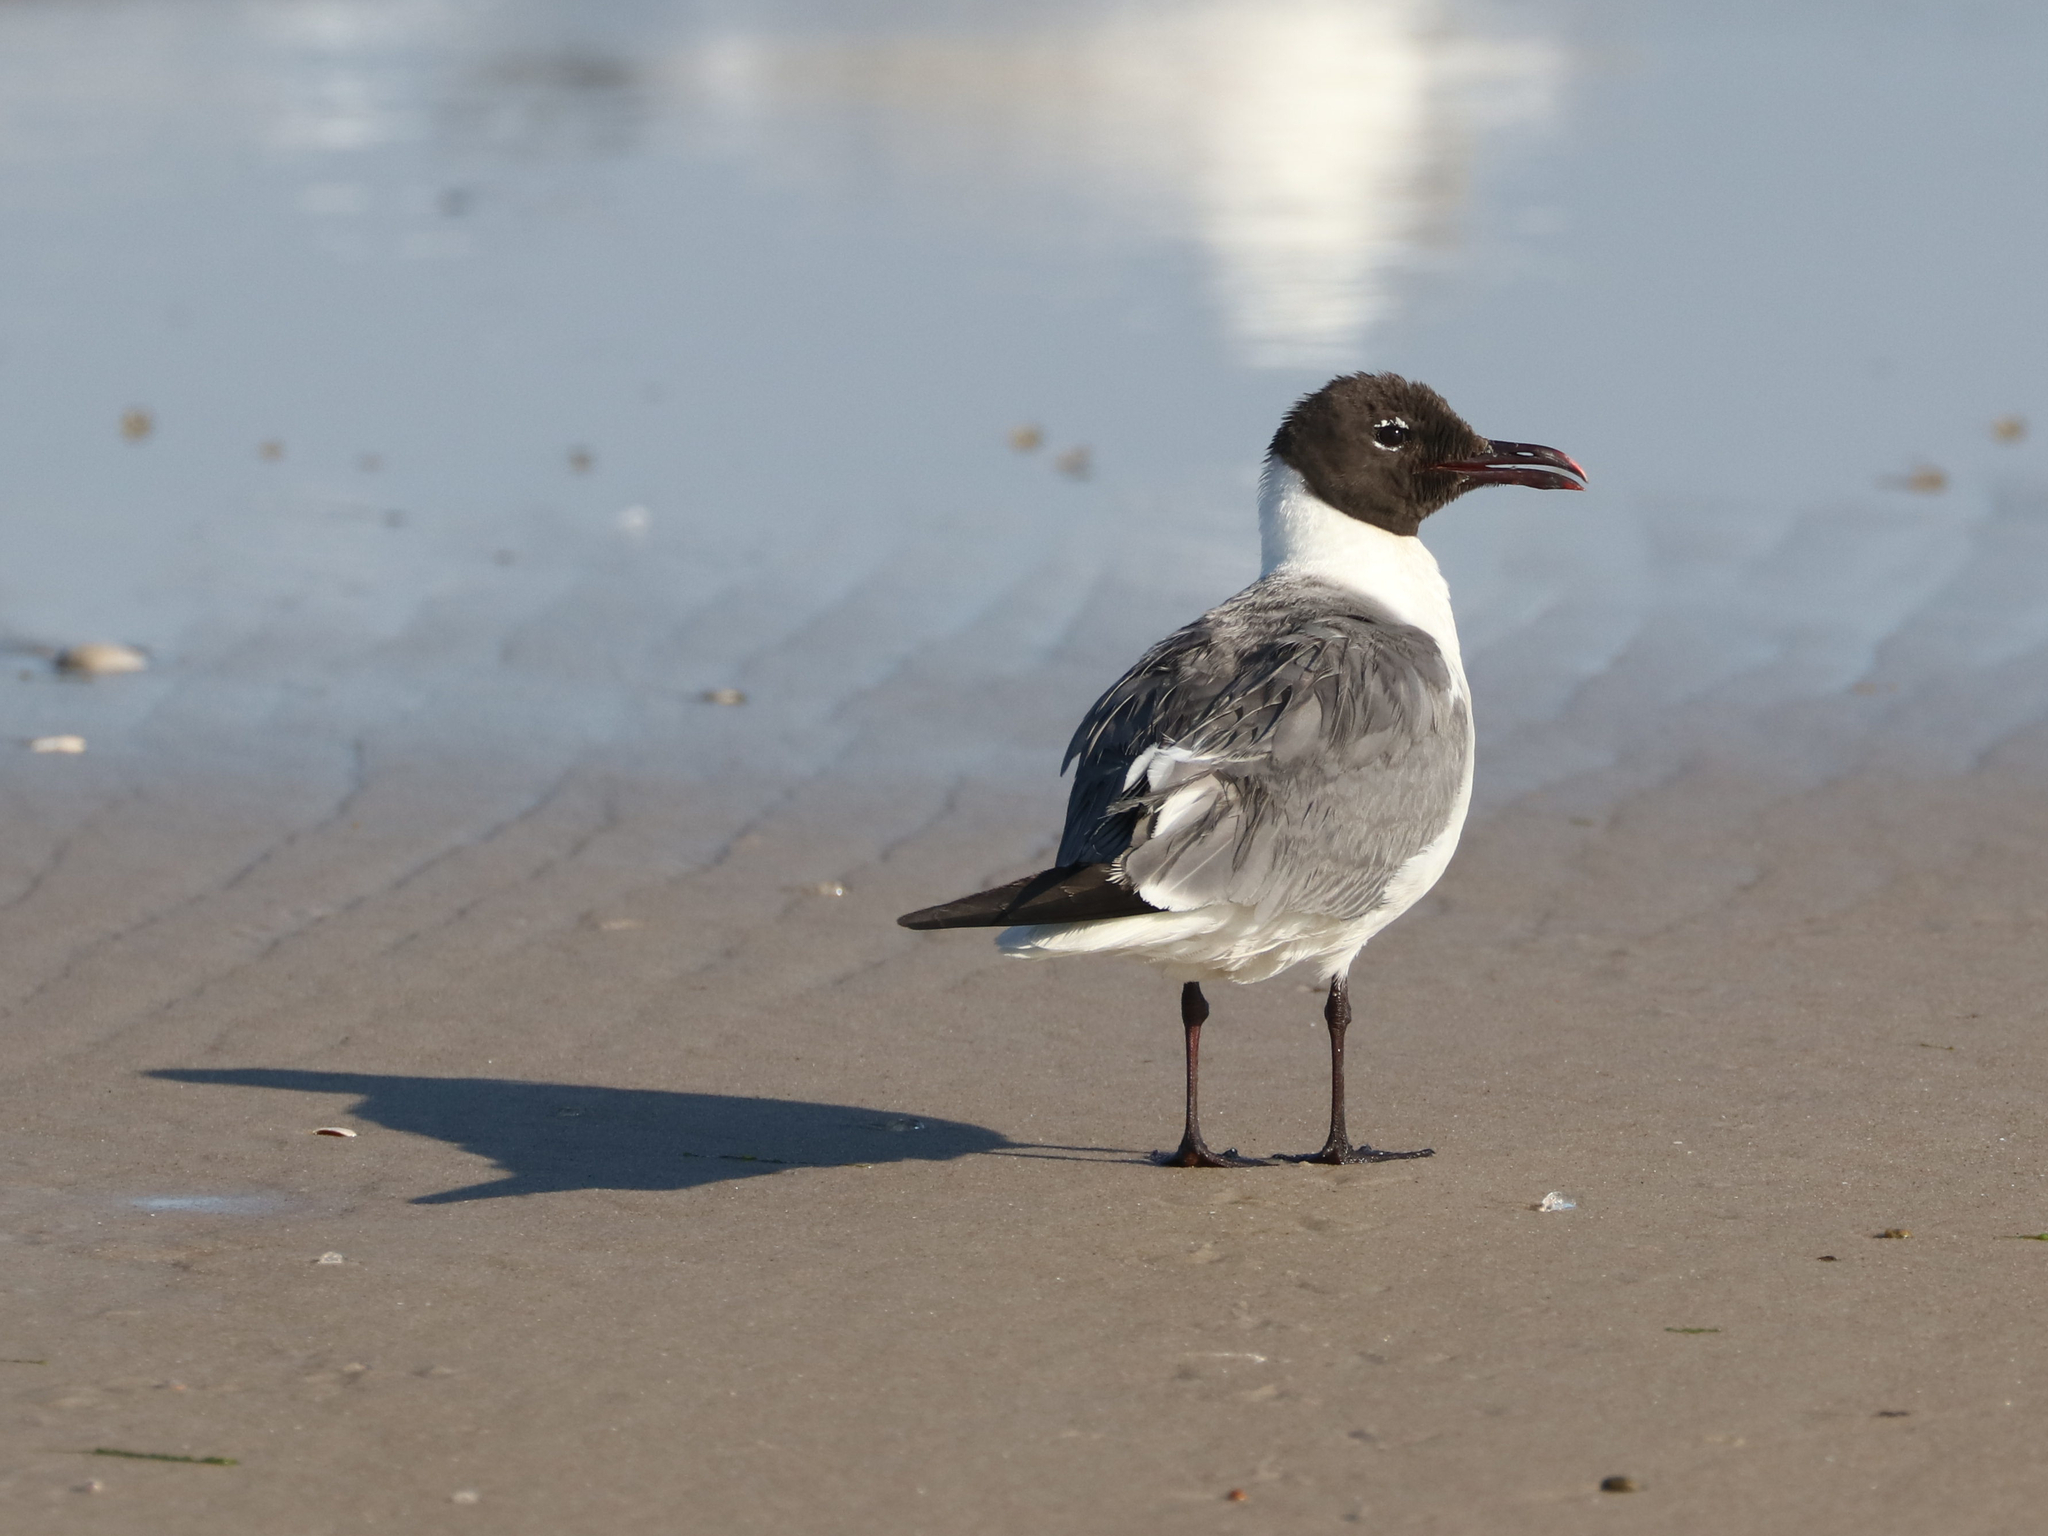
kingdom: Animalia
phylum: Chordata
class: Aves
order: Charadriiformes
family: Laridae
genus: Leucophaeus
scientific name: Leucophaeus atricilla
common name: Laughing gull
